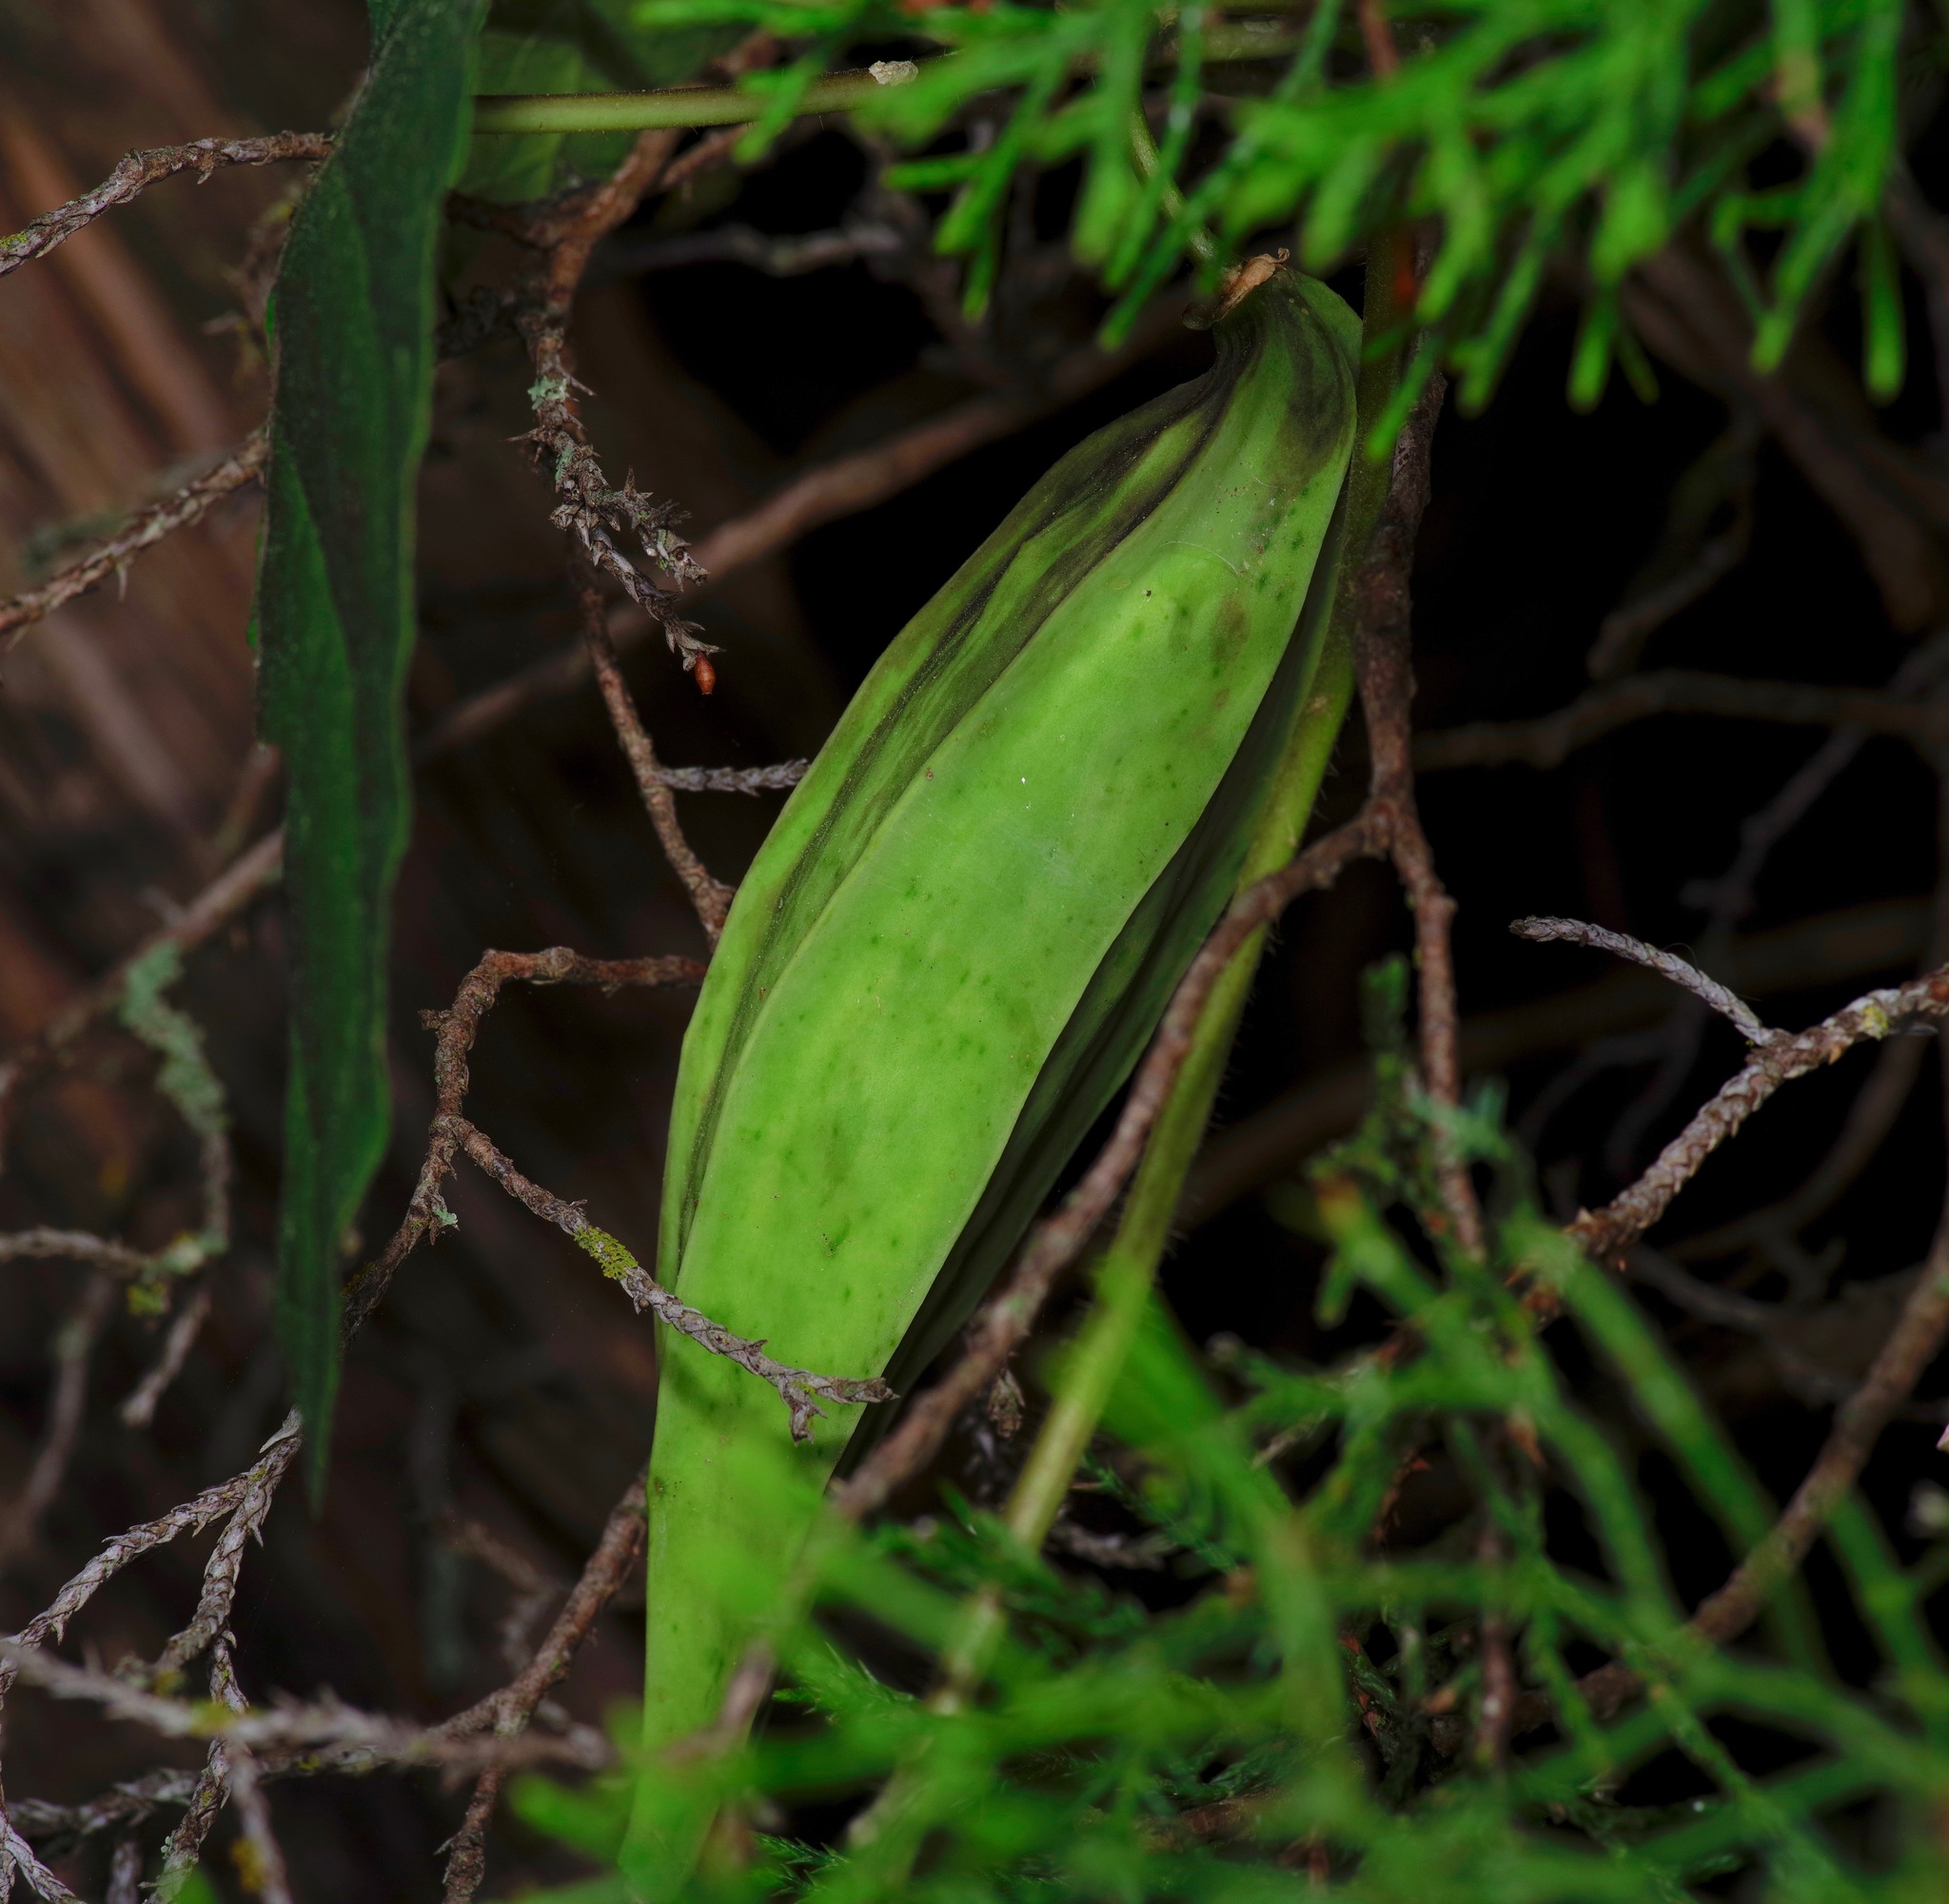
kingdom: Plantae
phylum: Tracheophyta
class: Magnoliopsida
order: Gentianales
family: Apocynaceae
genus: Gonolobus
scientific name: Gonolobus suberosus
